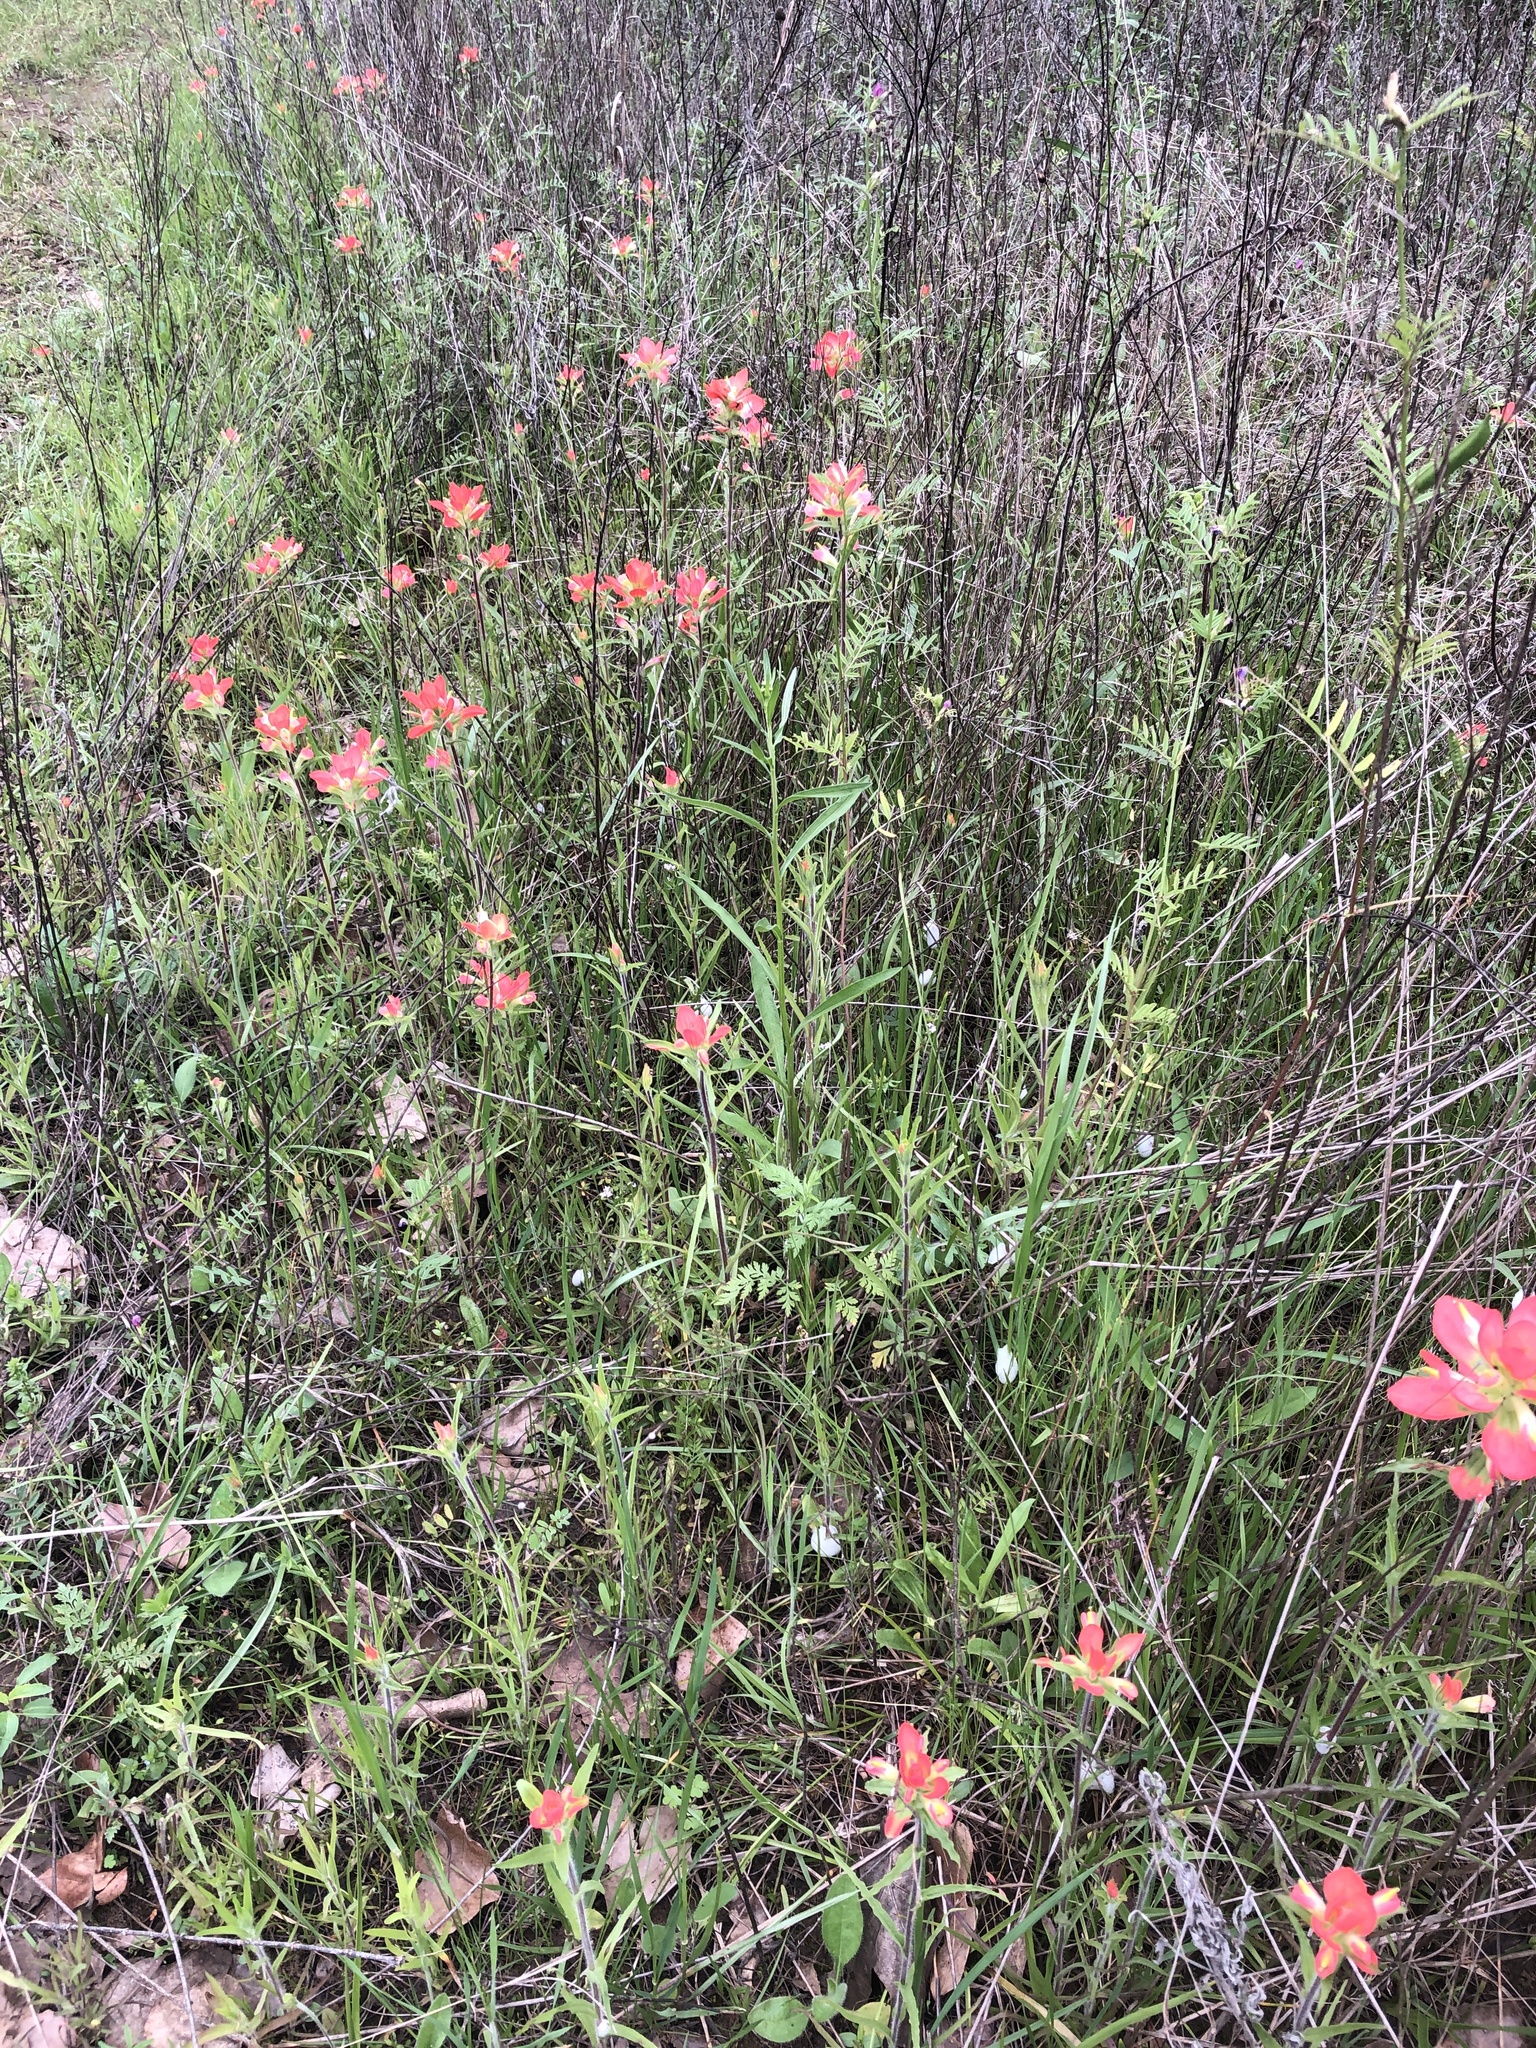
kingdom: Plantae
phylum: Tracheophyta
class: Magnoliopsida
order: Lamiales
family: Orobanchaceae
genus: Castilleja
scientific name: Castilleja indivisa
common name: Texas paintbrush
